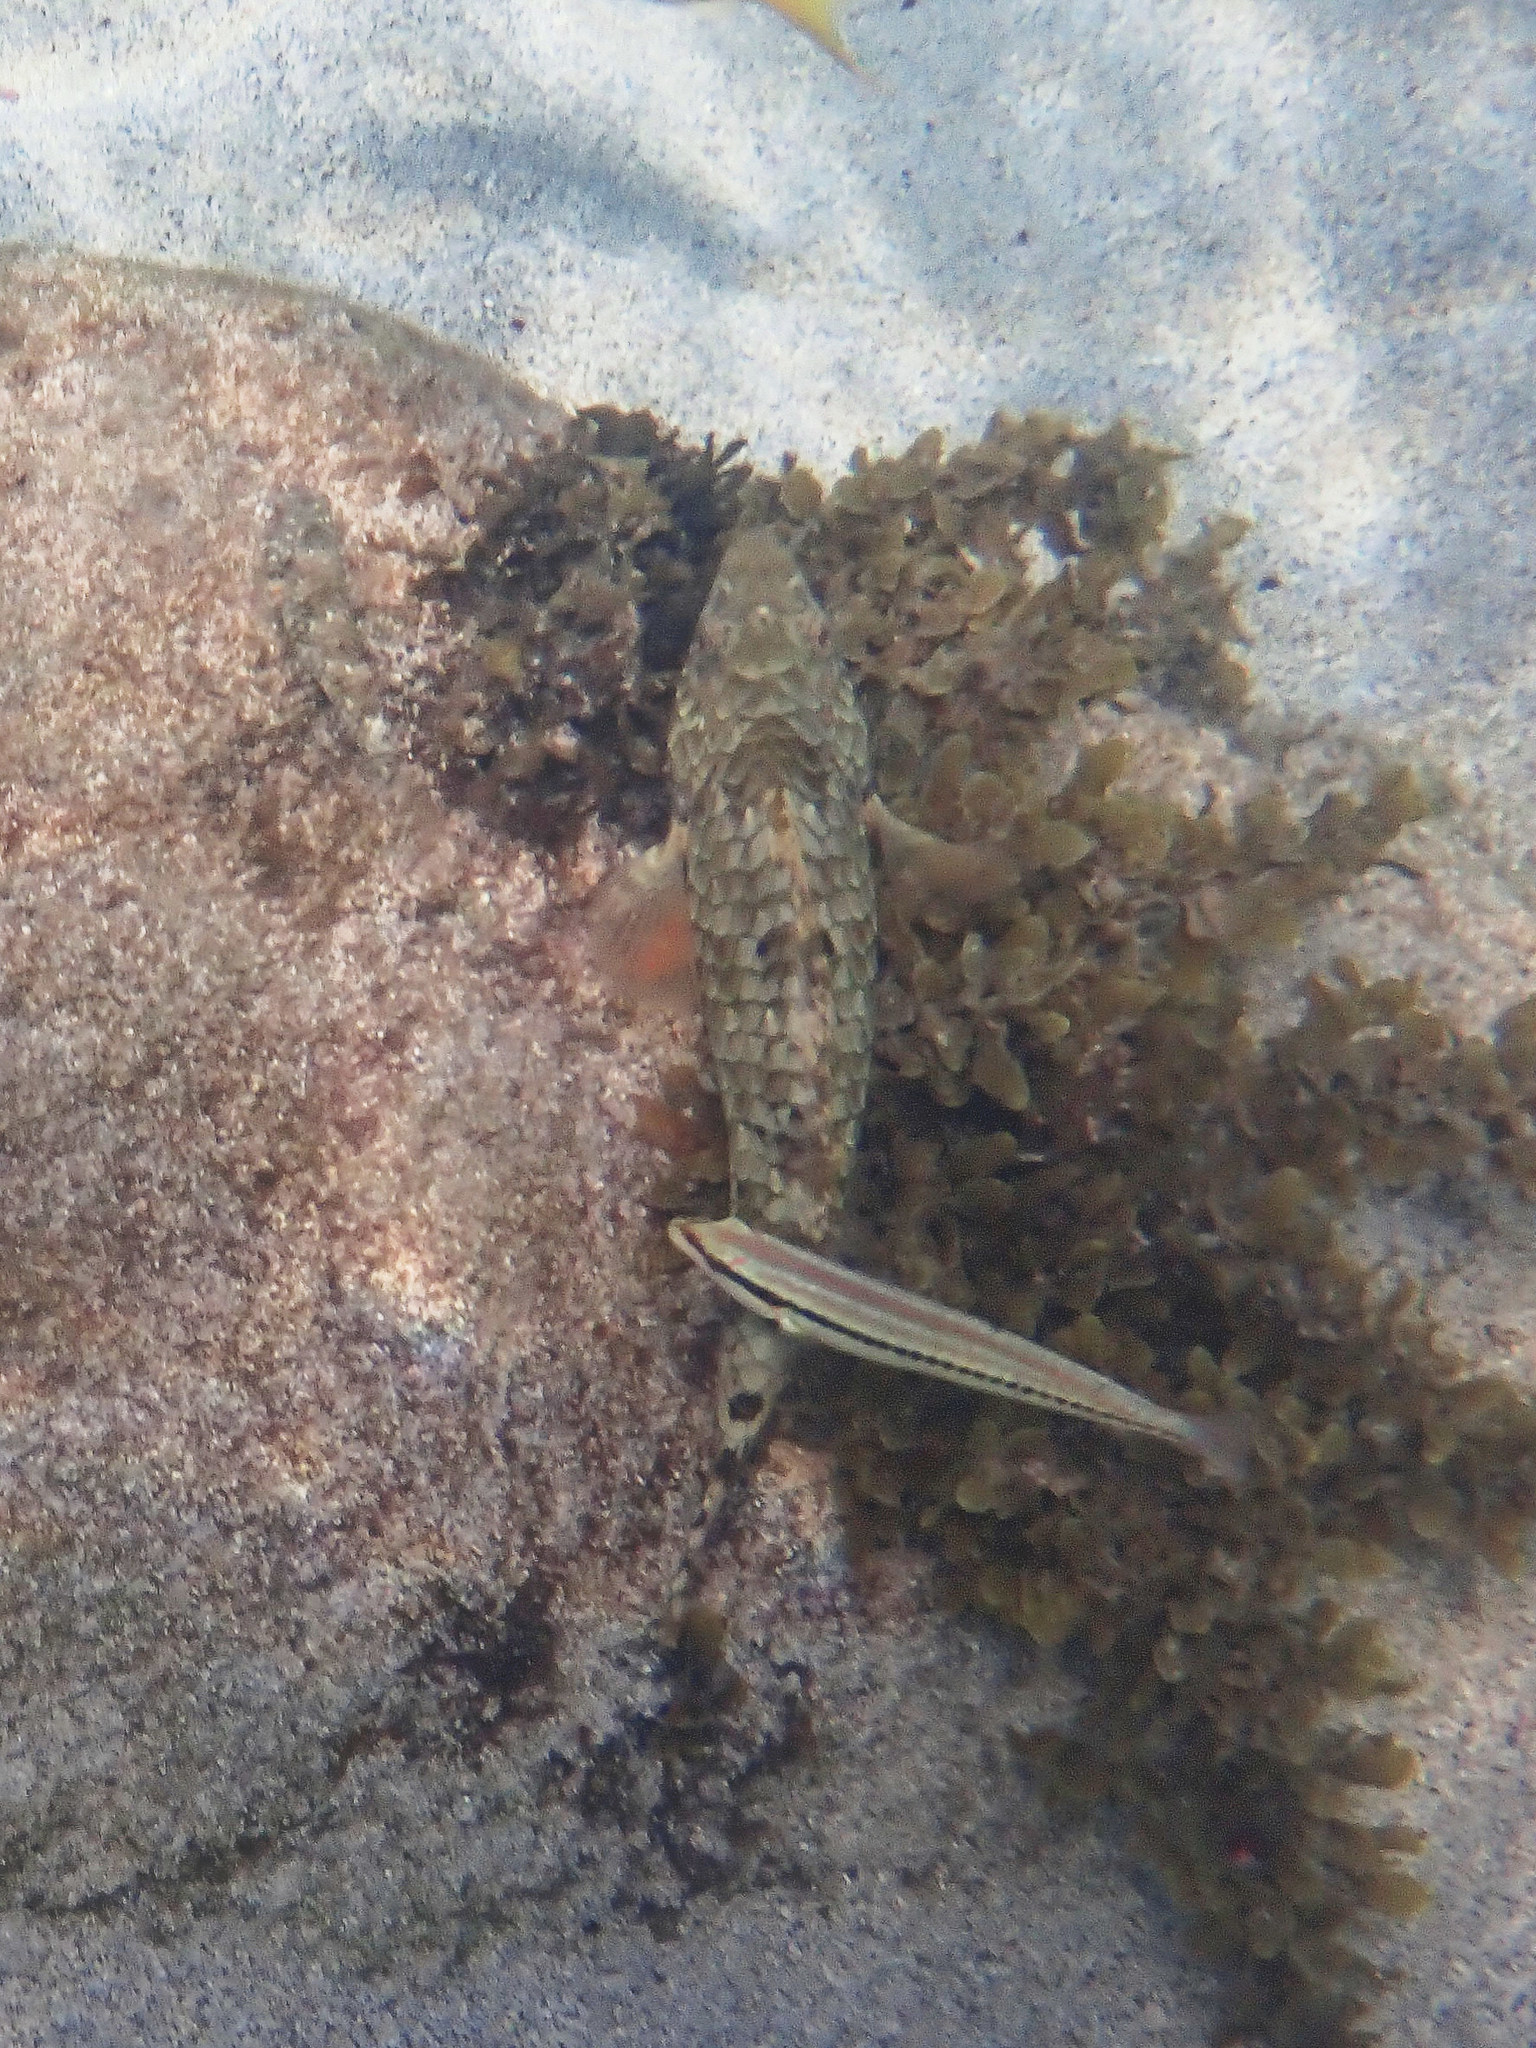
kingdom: Animalia
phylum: Chordata
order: Perciformes
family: Scaridae
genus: Sparisoma
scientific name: Sparisoma chrysopterum
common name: Redtail parrotfish
